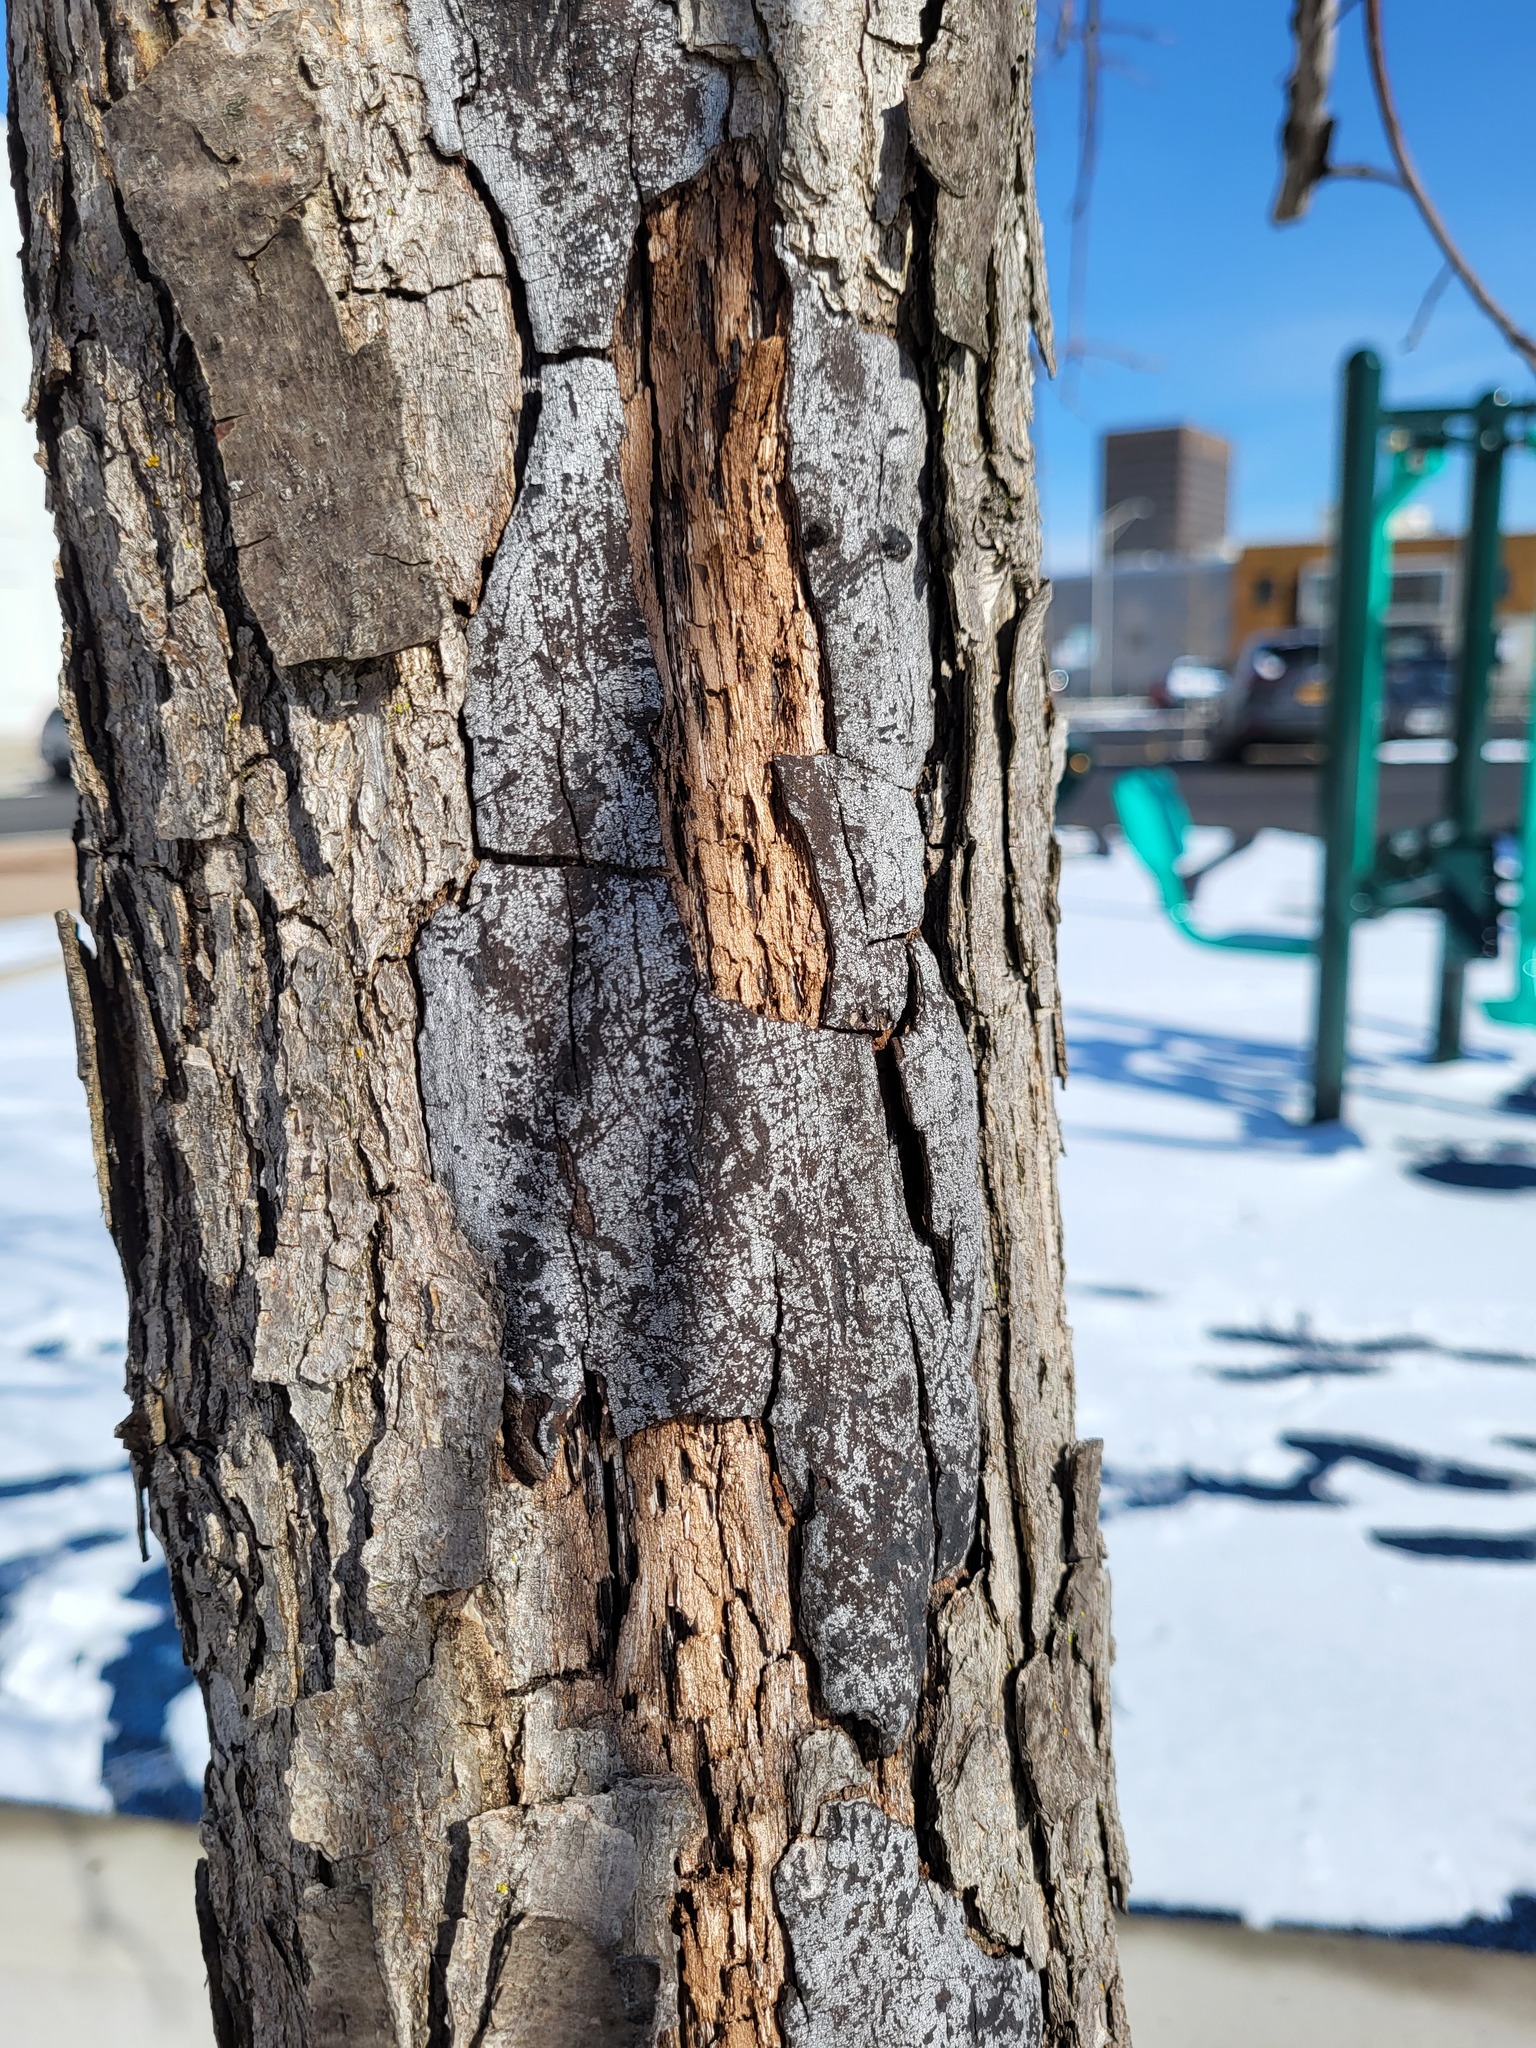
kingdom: Fungi
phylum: Ascomycota
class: Sordariomycetes
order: Xylariales
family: Graphostromataceae
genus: Biscogniauxia
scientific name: Biscogniauxia atropunctata
